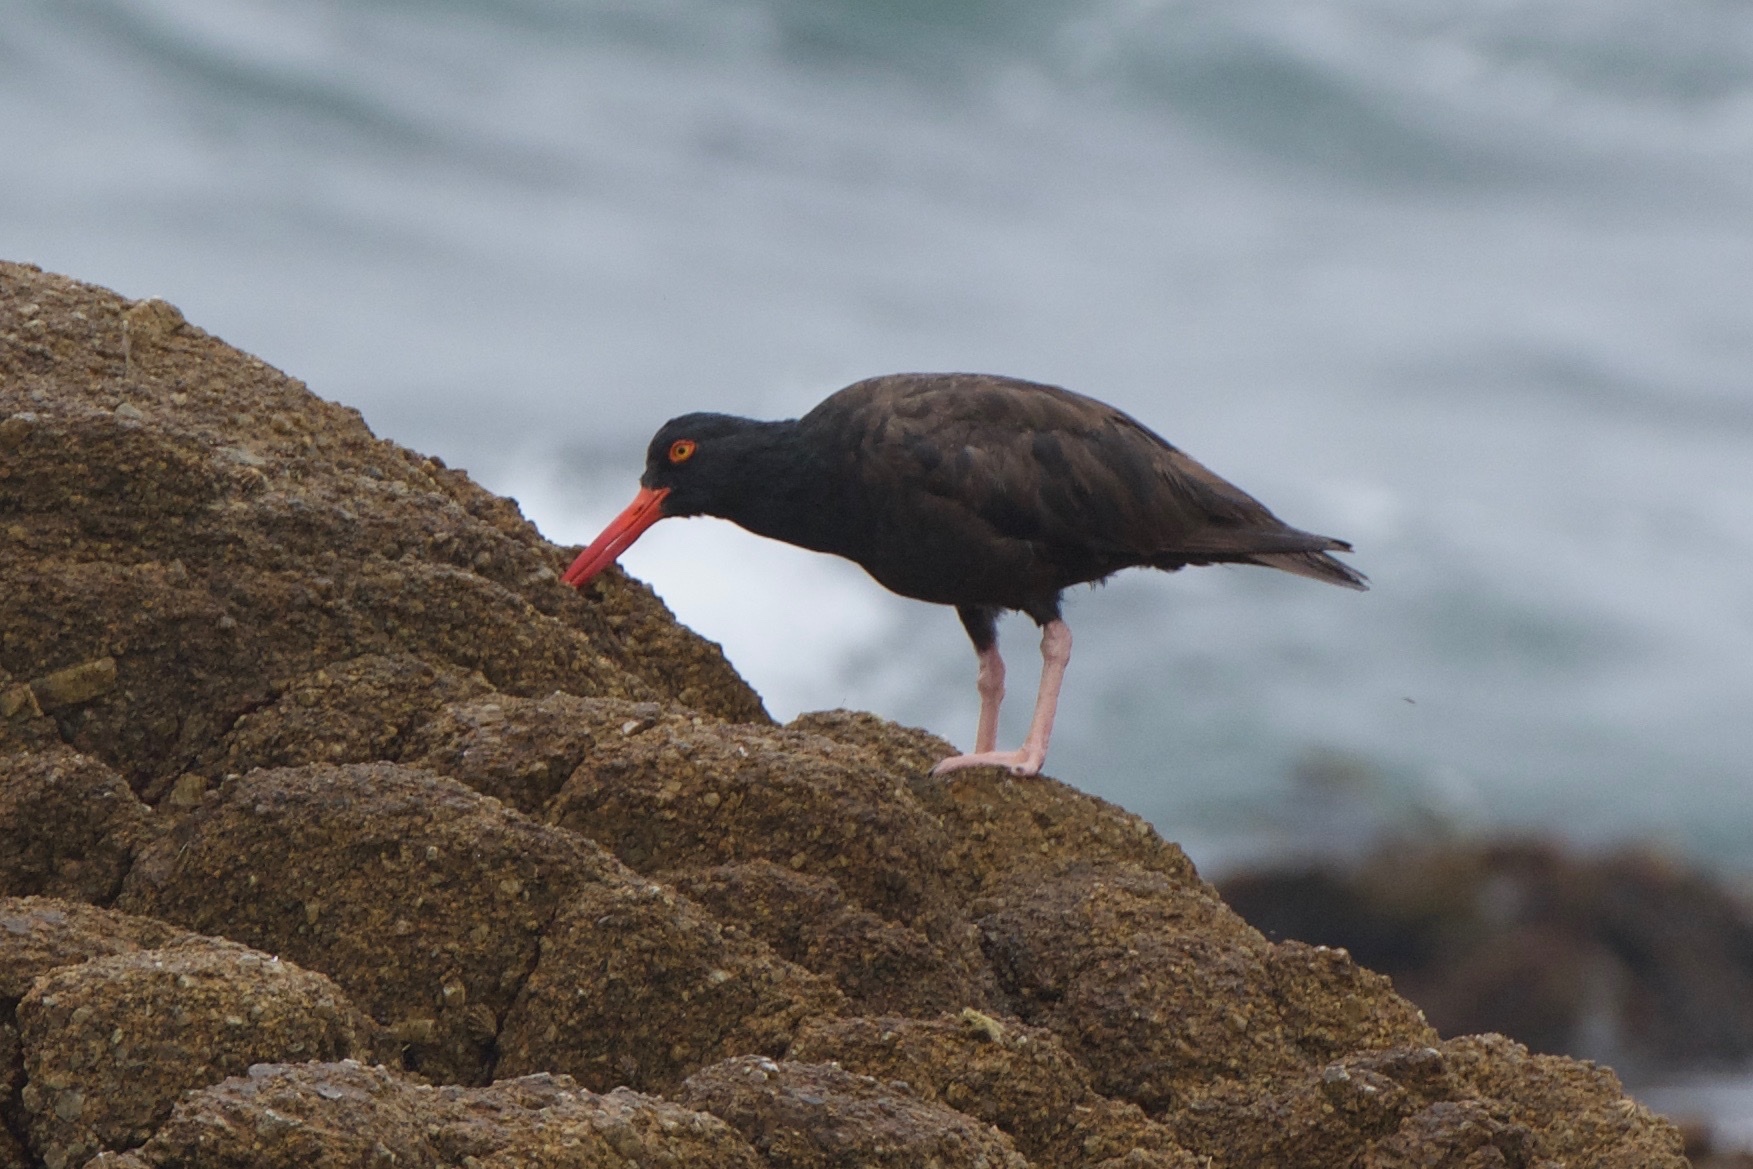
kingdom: Animalia
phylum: Chordata
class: Aves
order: Charadriiformes
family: Haematopodidae
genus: Haematopus
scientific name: Haematopus bachmani
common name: Black oystercatcher
